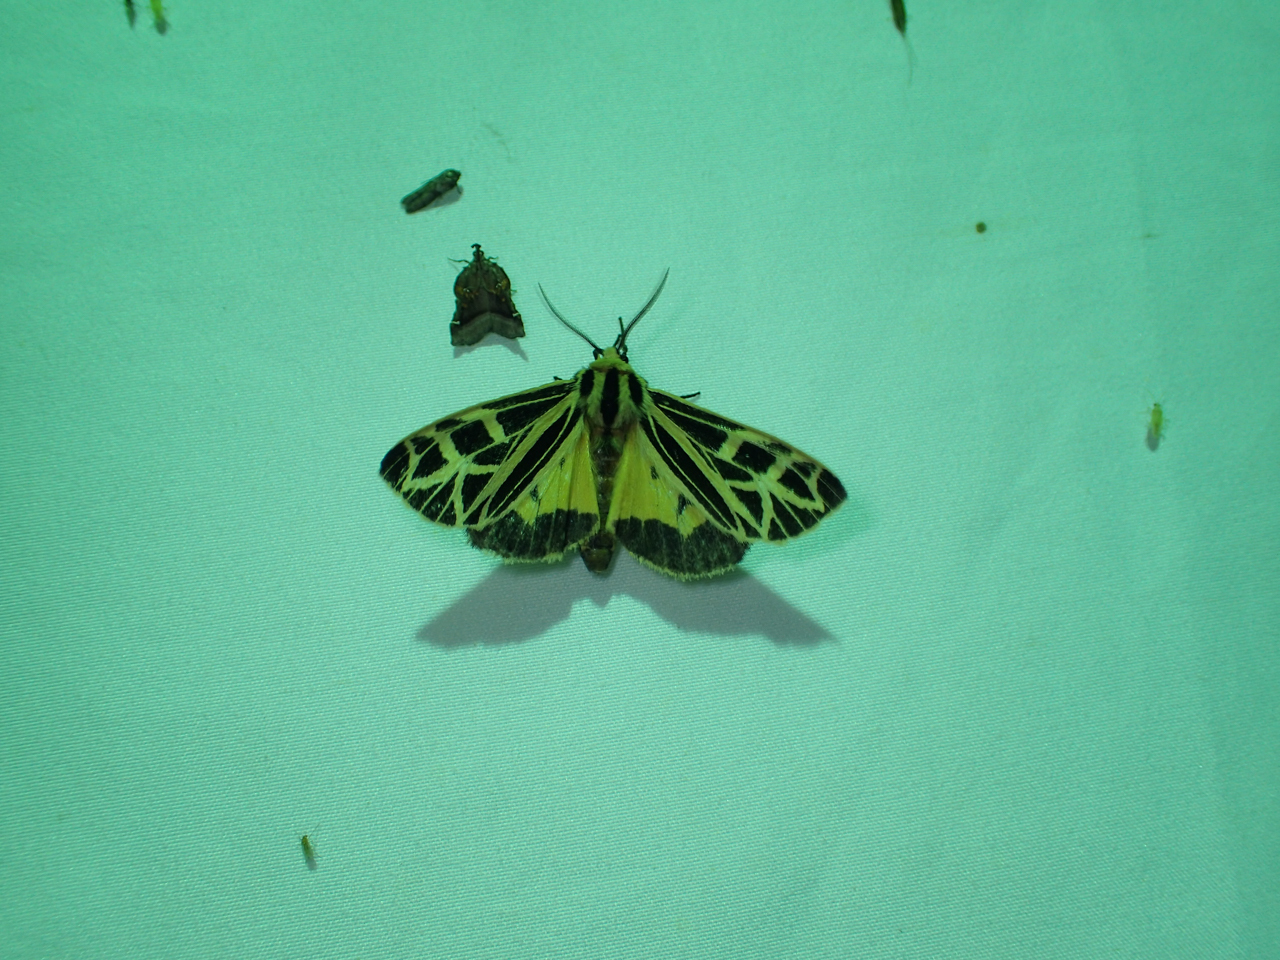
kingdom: Animalia
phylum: Arthropoda
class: Insecta
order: Lepidoptera
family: Erebidae
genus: Apantesis
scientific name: Apantesis
